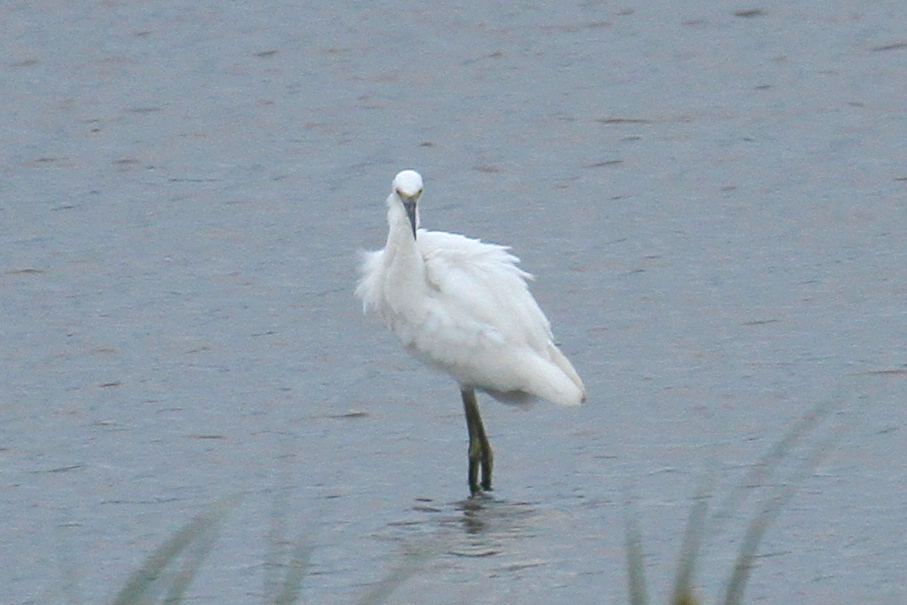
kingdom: Animalia
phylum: Chordata
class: Aves
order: Pelecaniformes
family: Ardeidae
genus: Egretta
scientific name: Egretta thula
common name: Snowy egret
